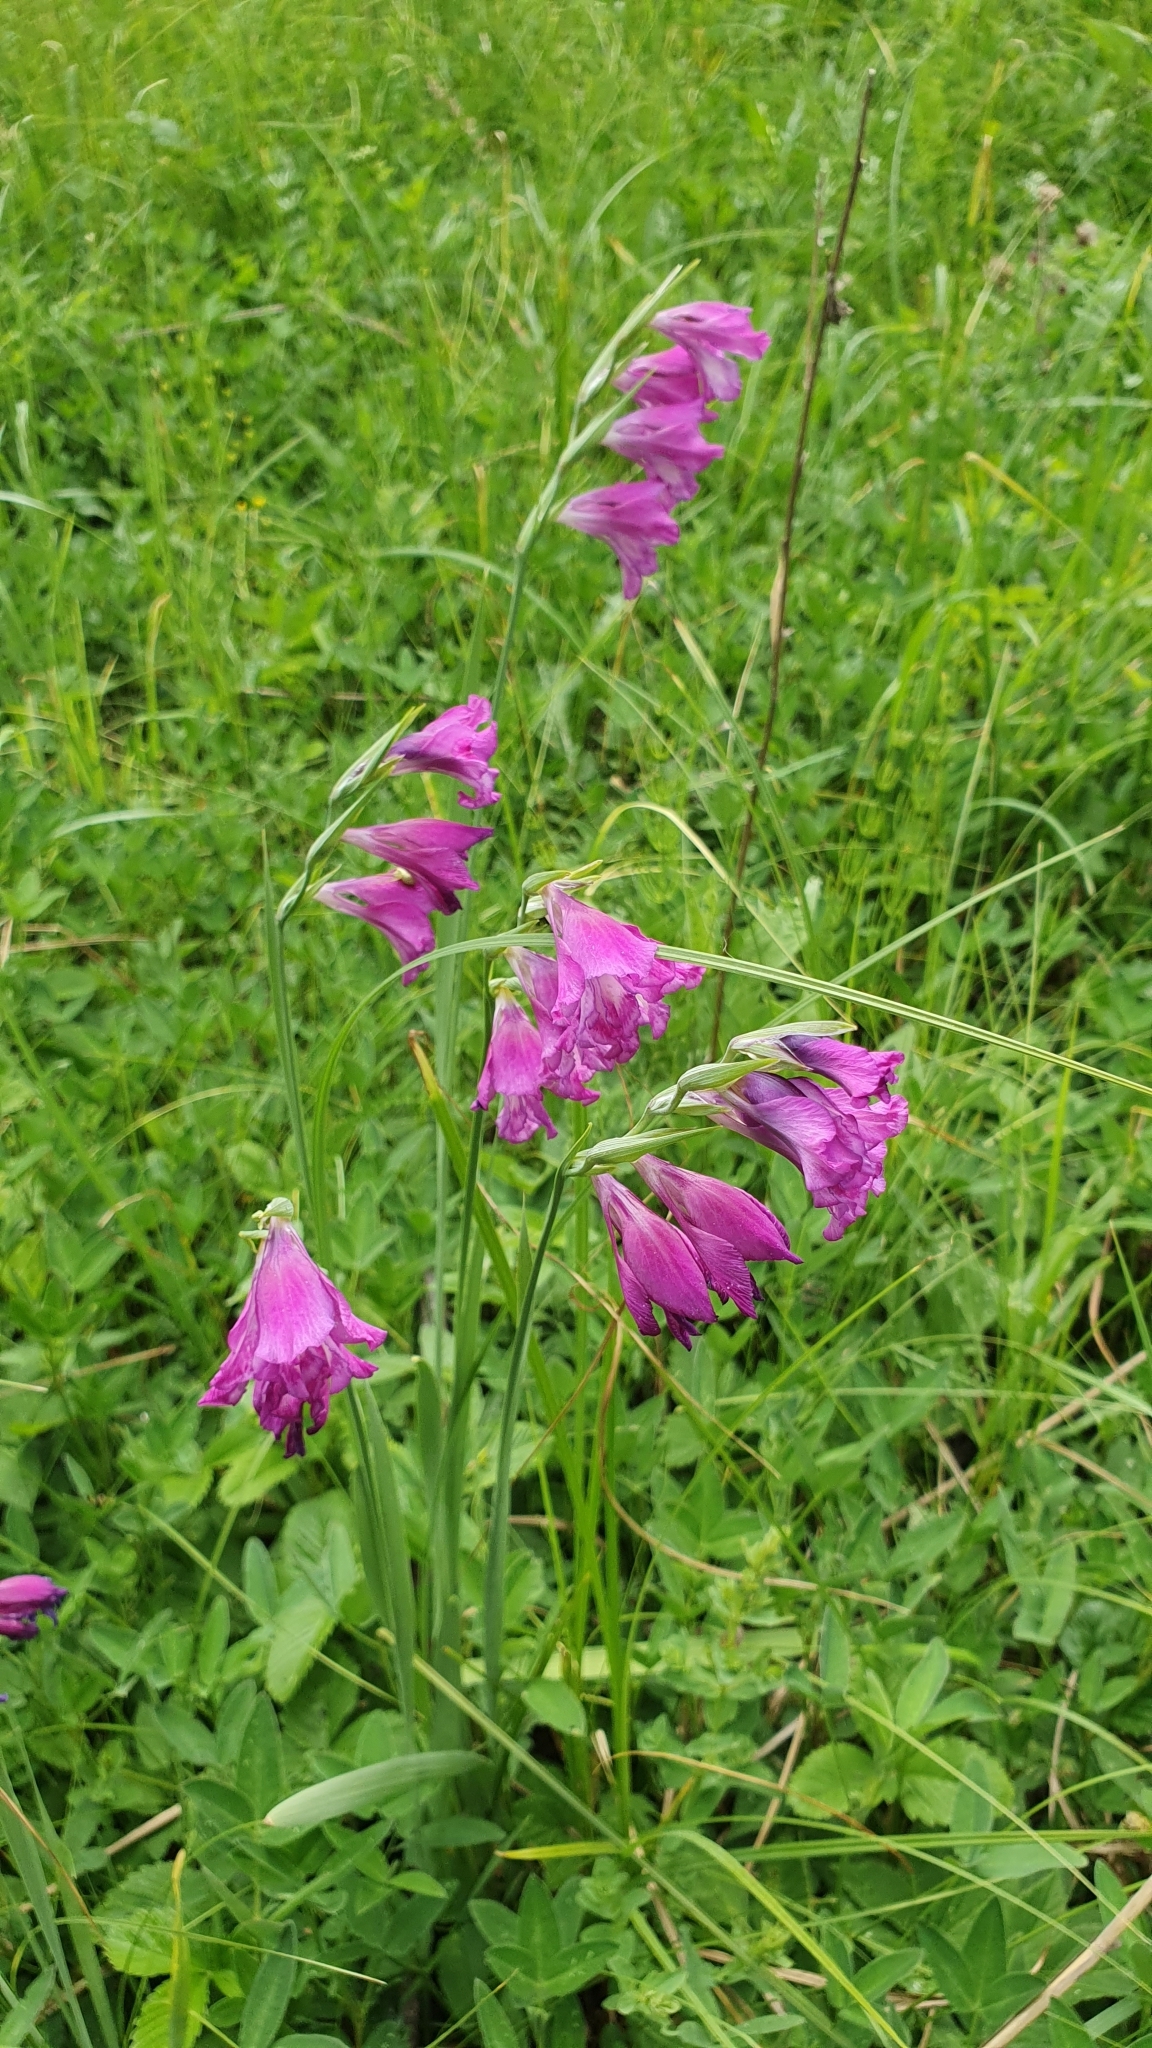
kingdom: Plantae
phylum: Tracheophyta
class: Liliopsida
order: Asparagales
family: Iridaceae
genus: Gladiolus
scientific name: Gladiolus tenuis
